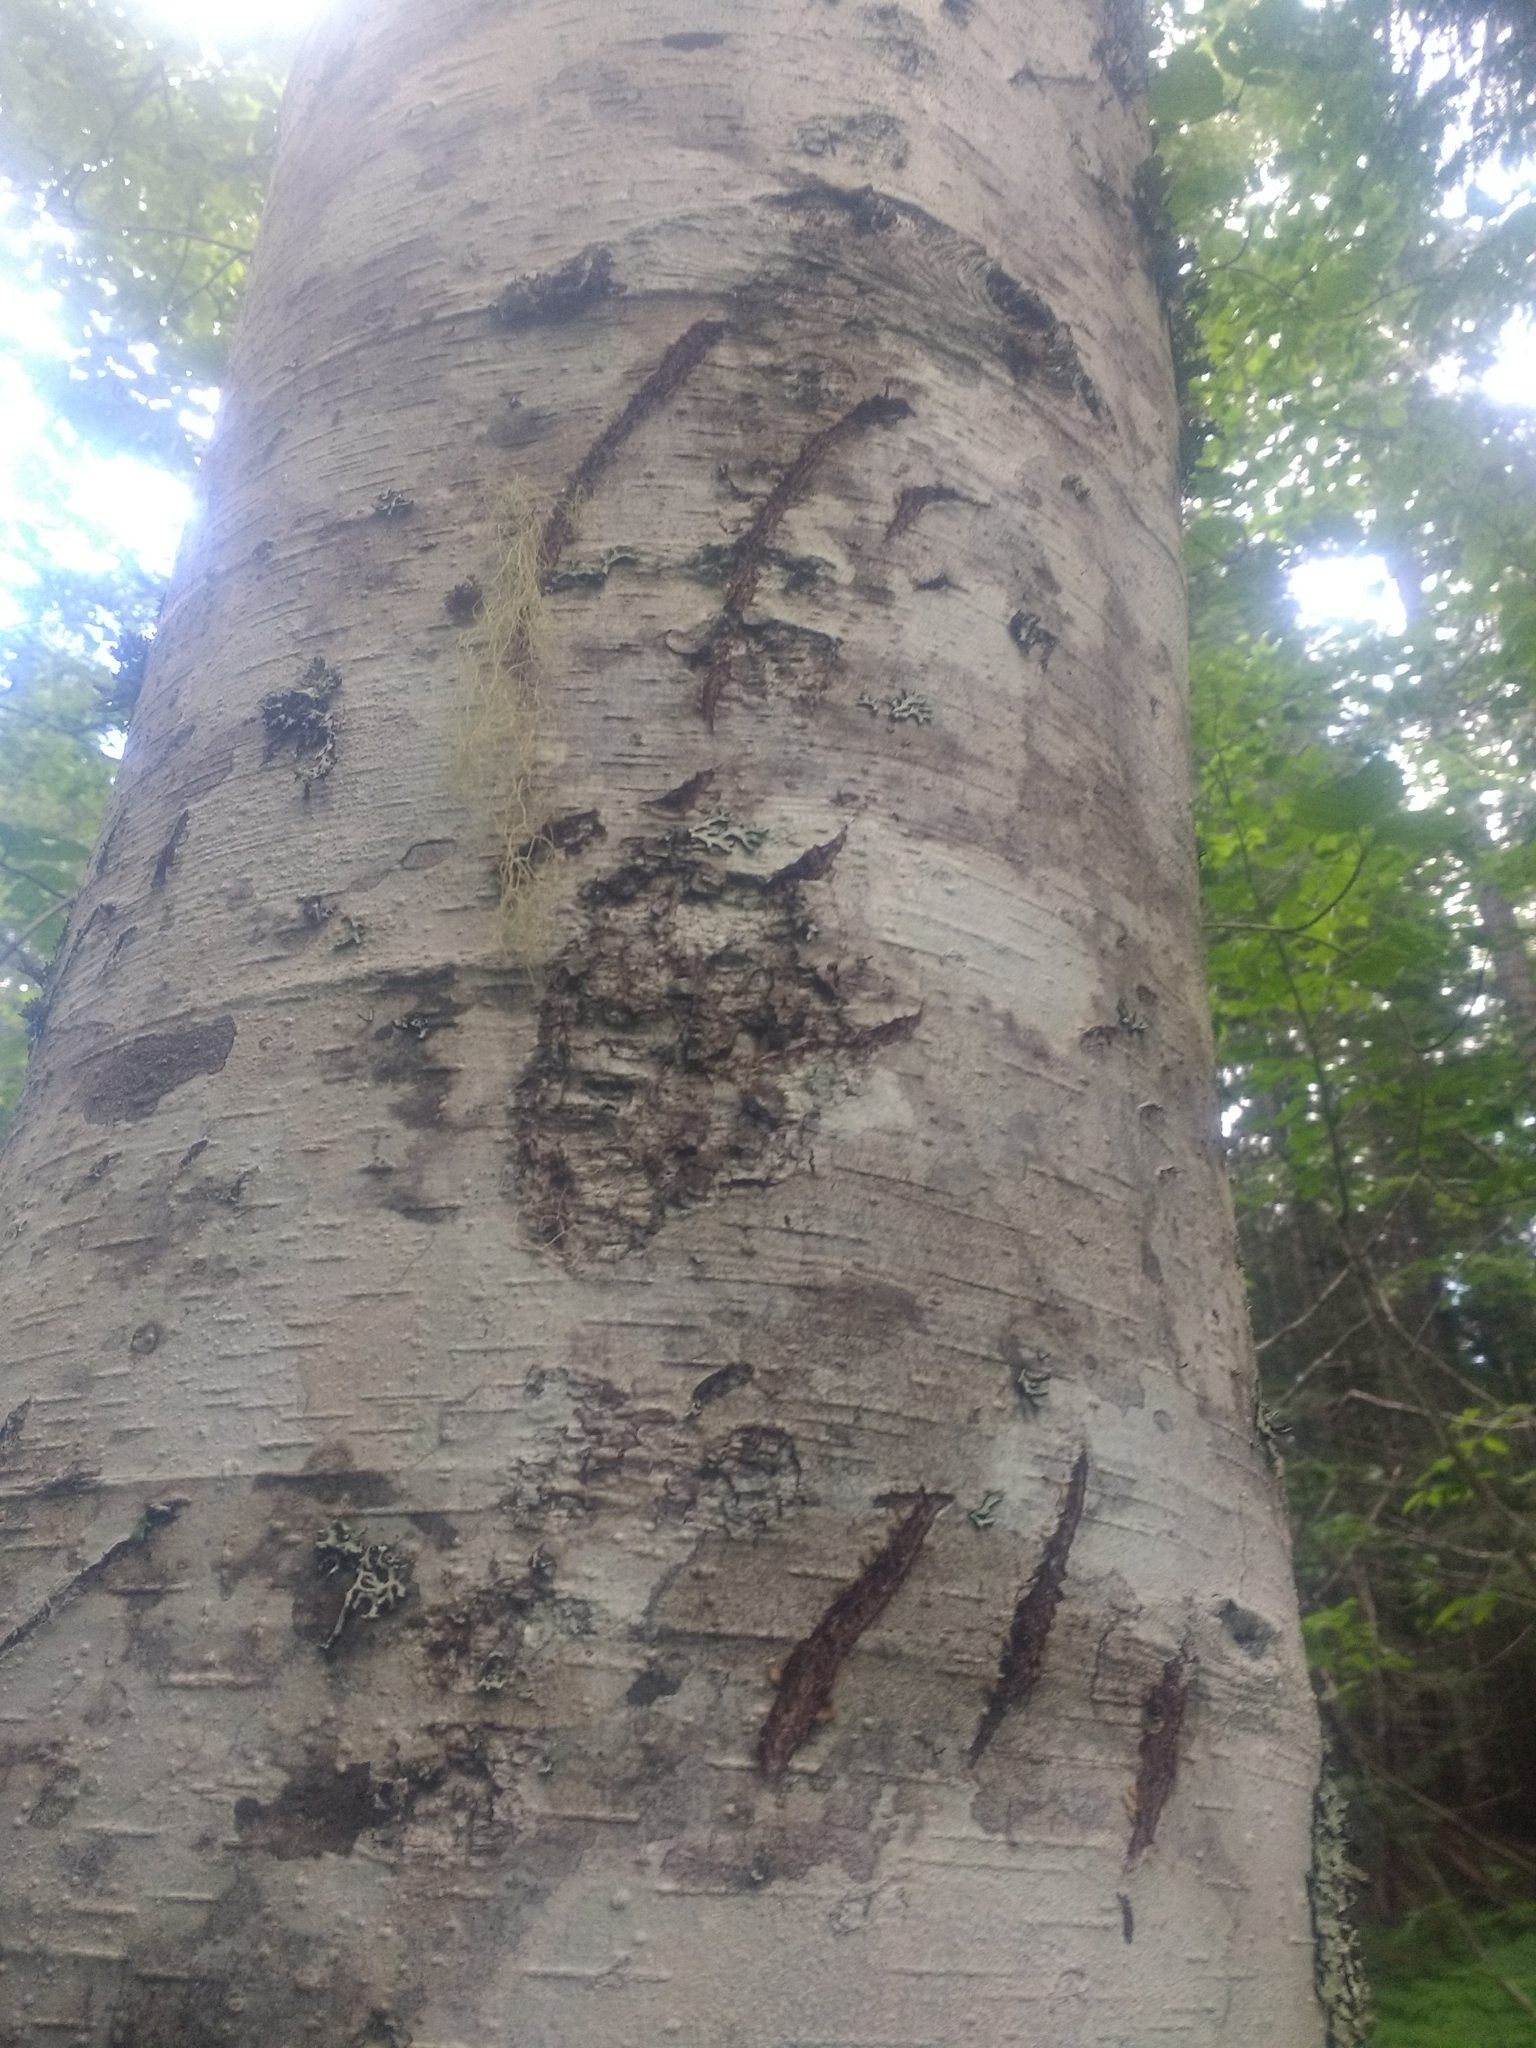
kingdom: Animalia
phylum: Chordata
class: Mammalia
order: Carnivora
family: Ursidae
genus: Ursus
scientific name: Ursus americanus
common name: American black bear
